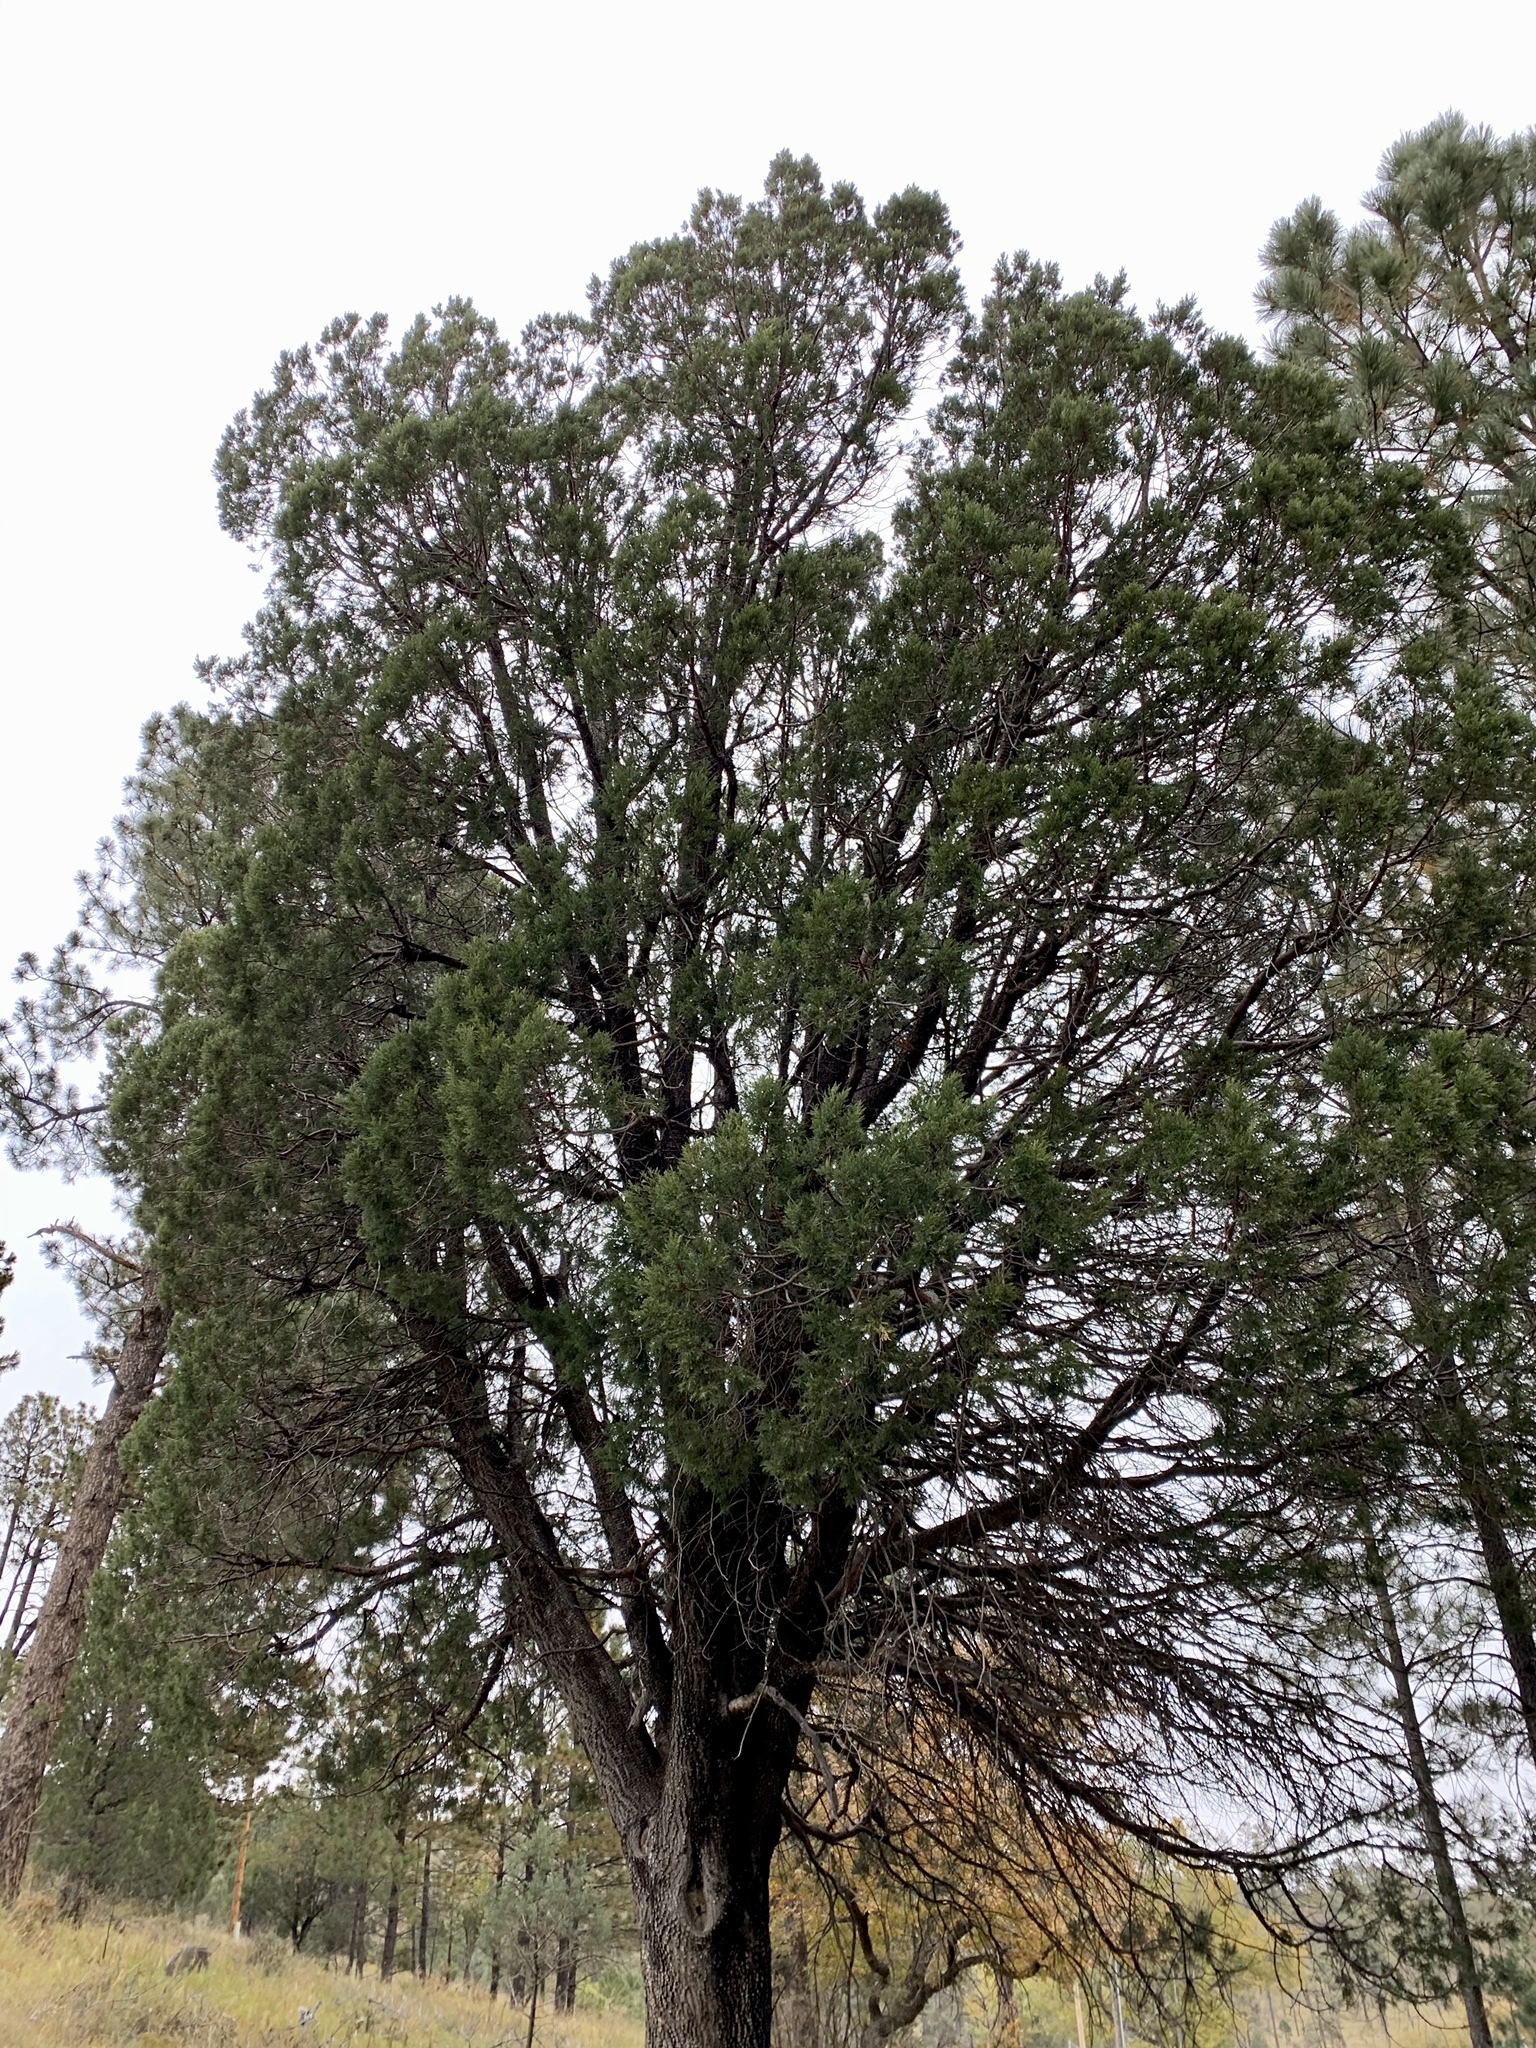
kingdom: Plantae
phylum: Tracheophyta
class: Pinopsida
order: Pinales
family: Cupressaceae
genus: Juniperus
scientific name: Juniperus deppeana
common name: Alligator juniper
